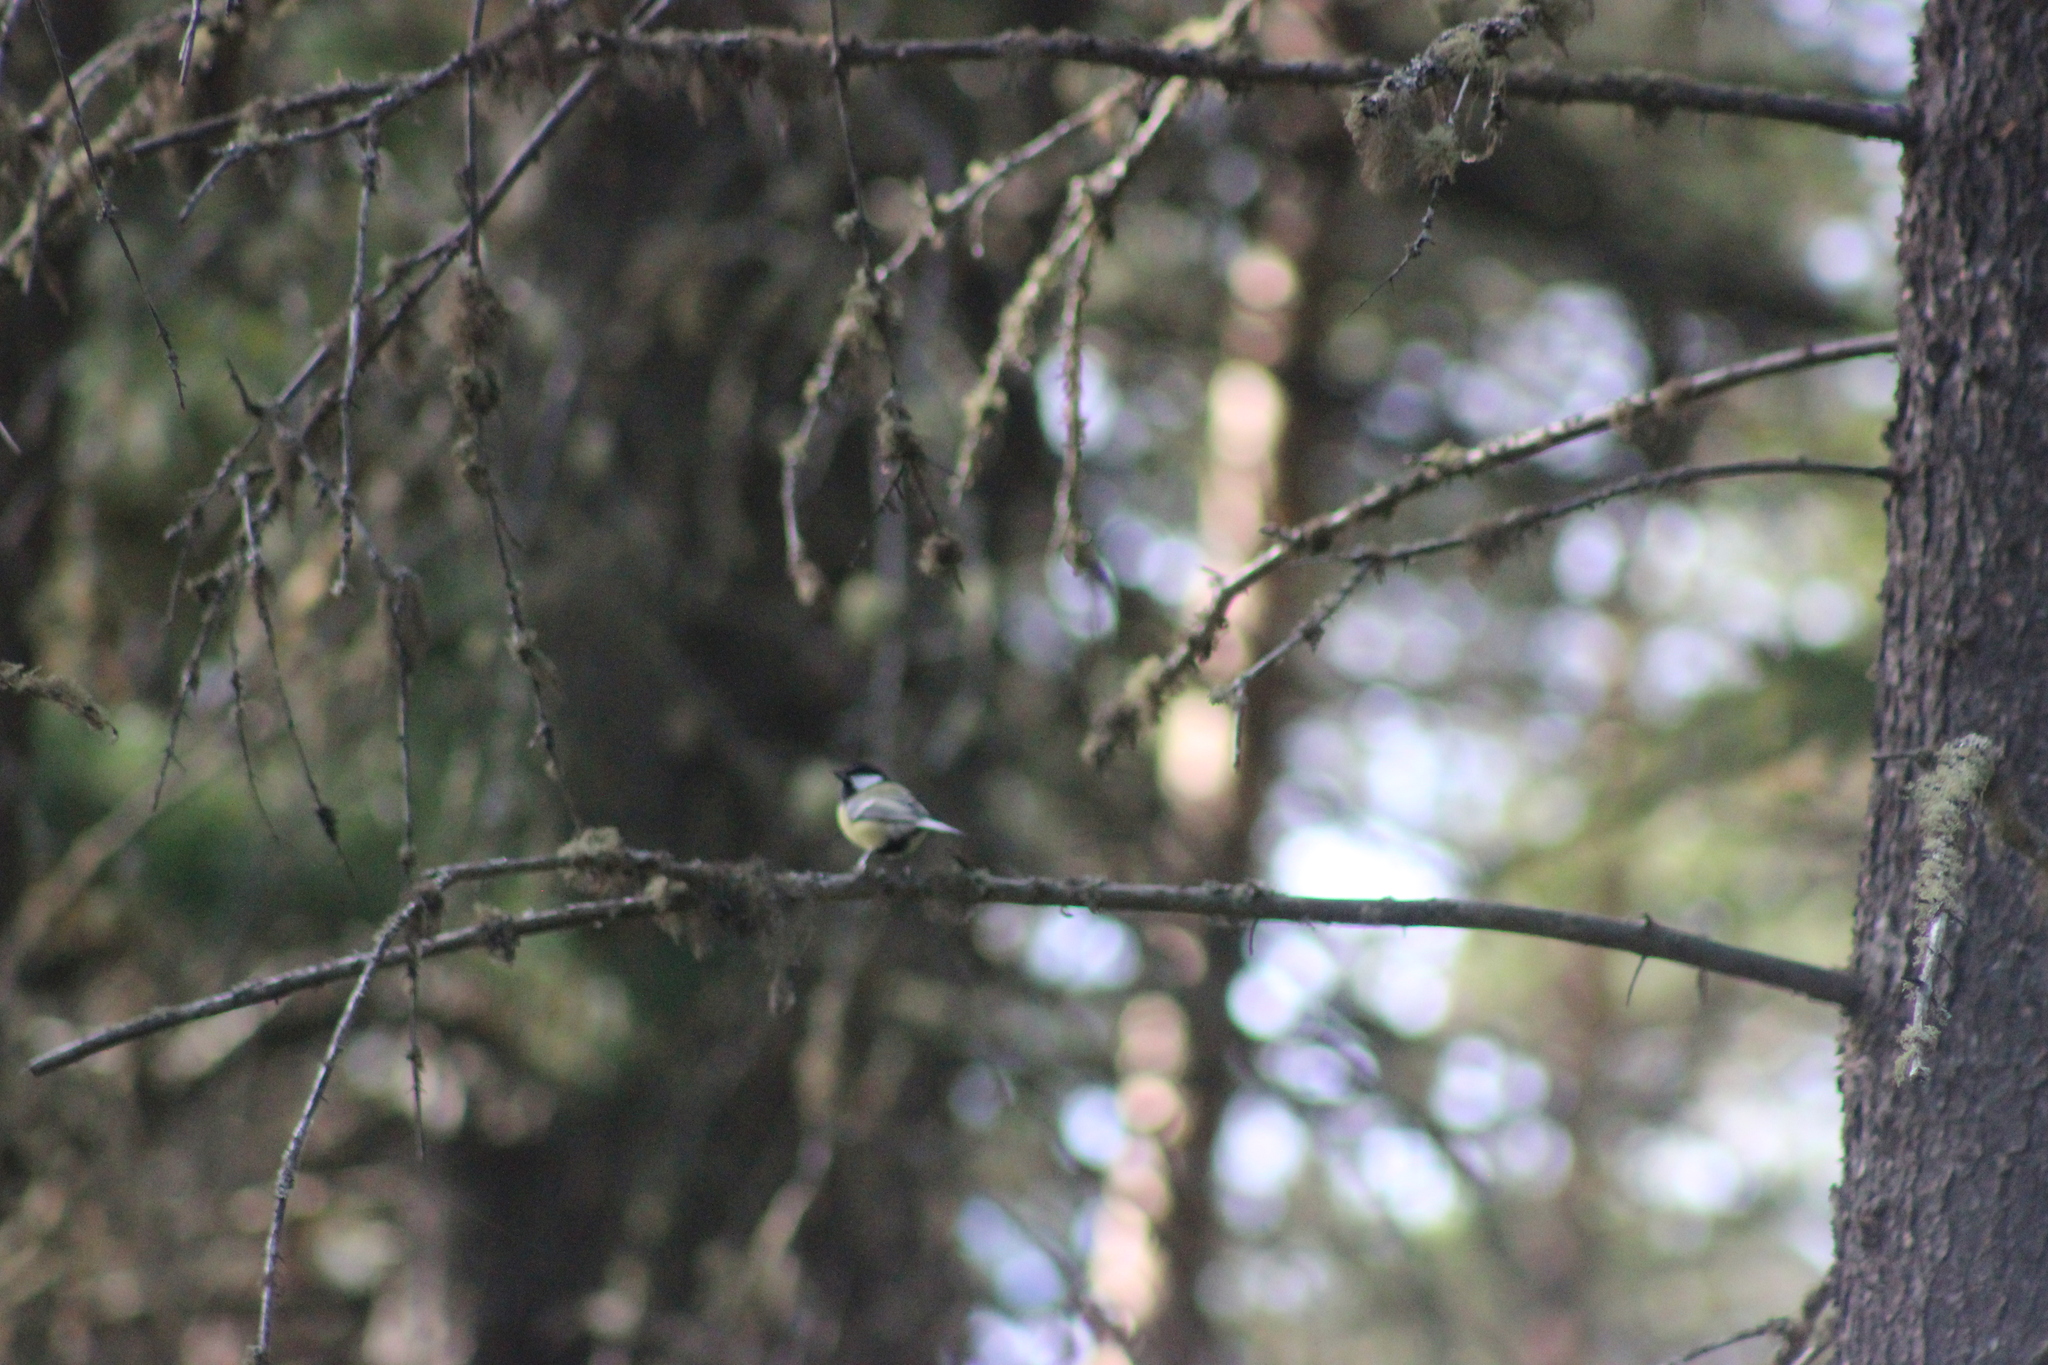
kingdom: Animalia
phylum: Chordata
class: Aves
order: Passeriformes
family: Paridae
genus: Parus
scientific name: Parus major
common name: Great tit
